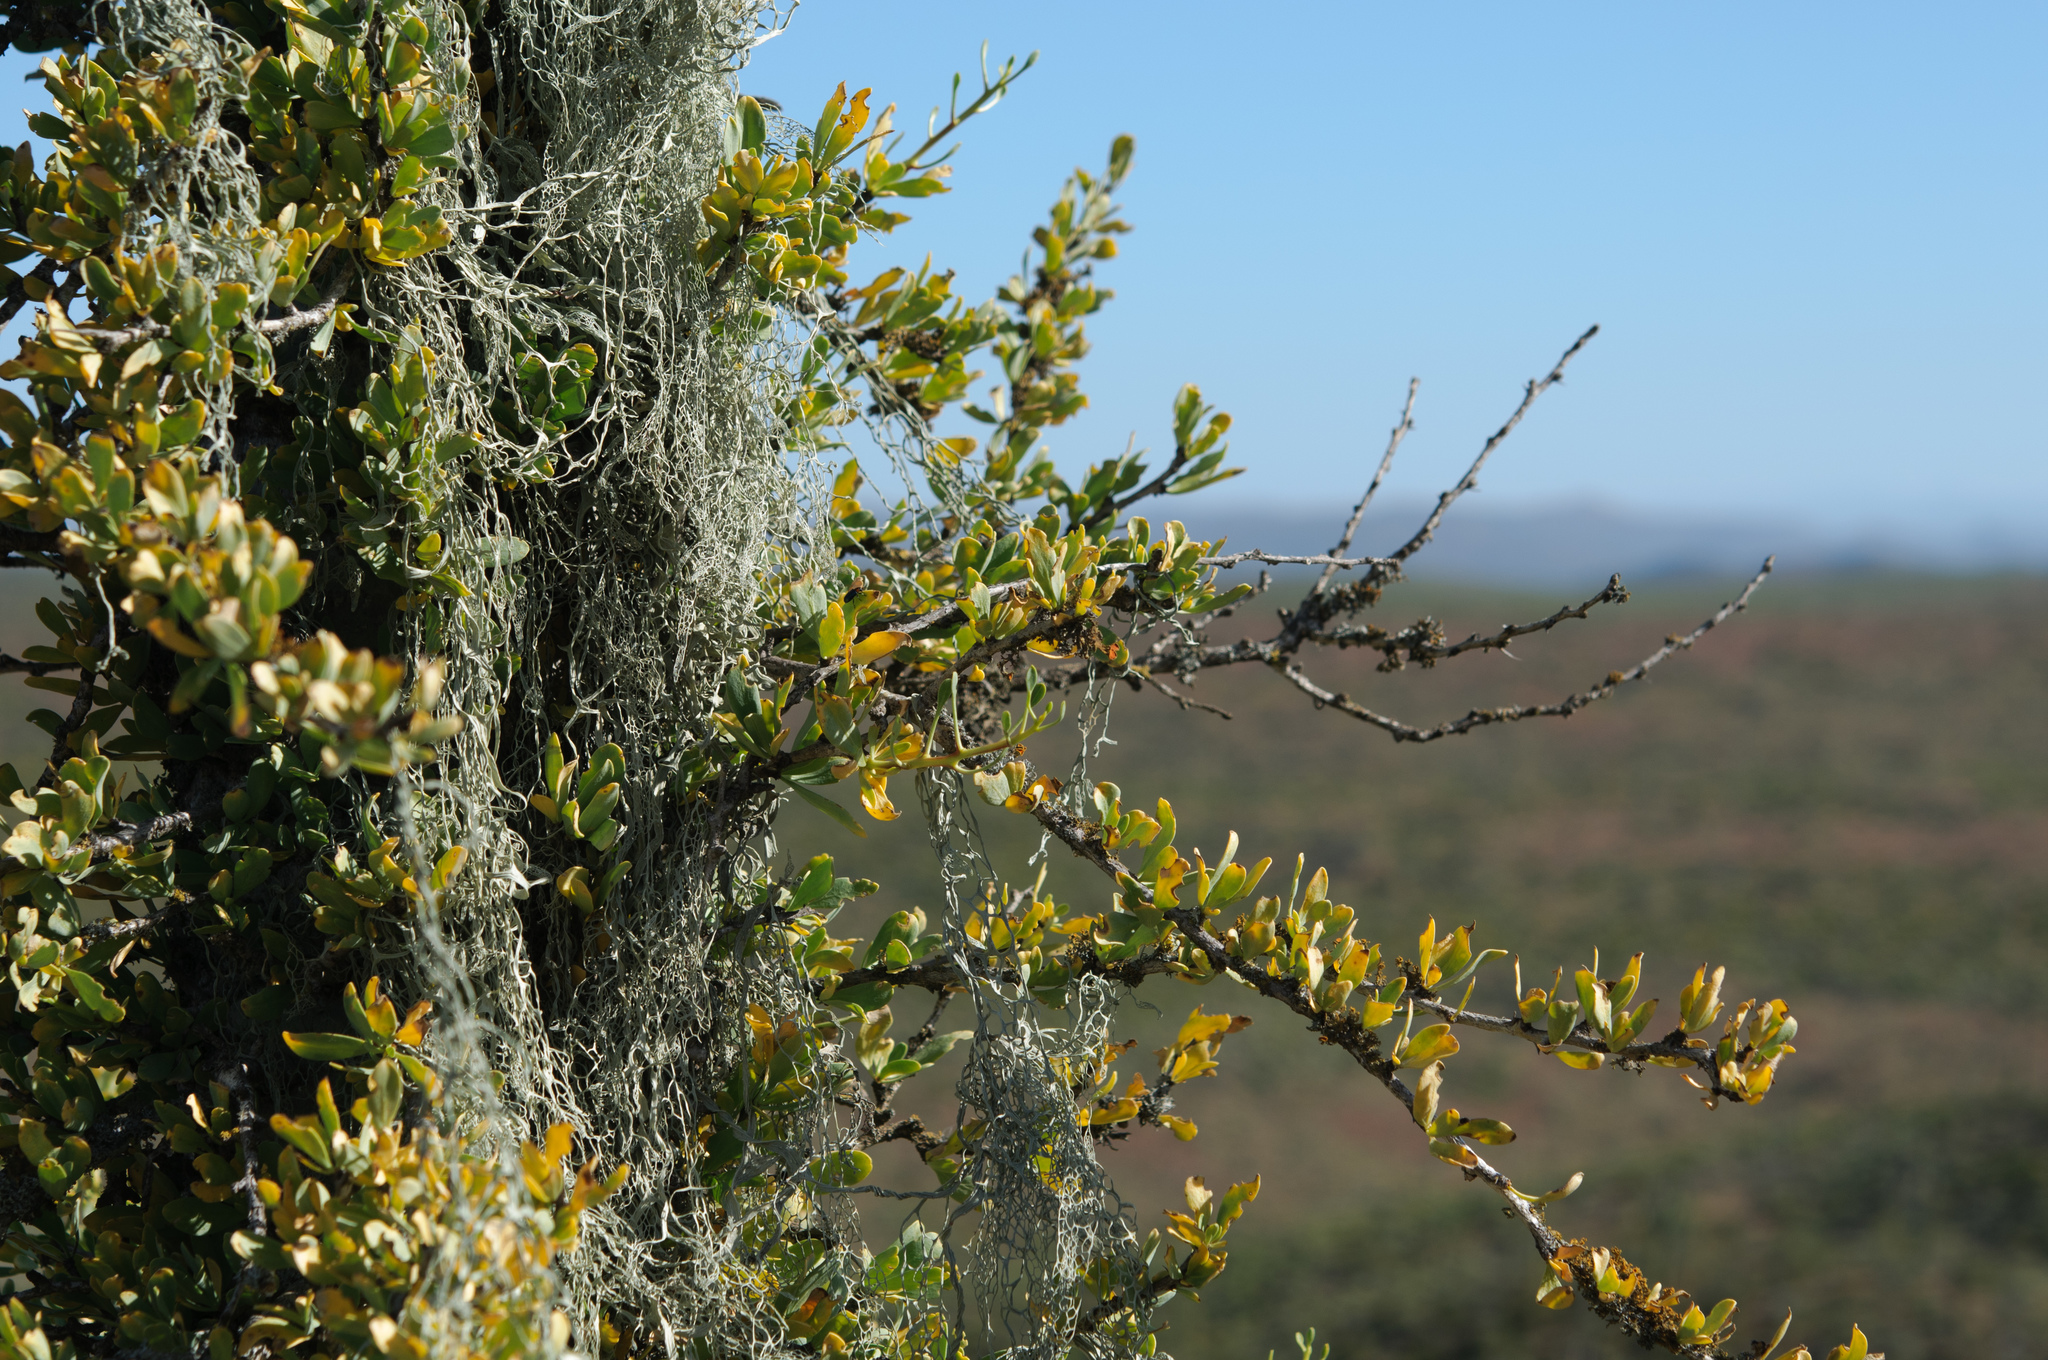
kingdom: Plantae
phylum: Tracheophyta
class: Magnoliopsida
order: Ericales
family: Fouquieriaceae
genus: Fouquieria
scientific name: Fouquieria columnaris
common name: Boojumtree
